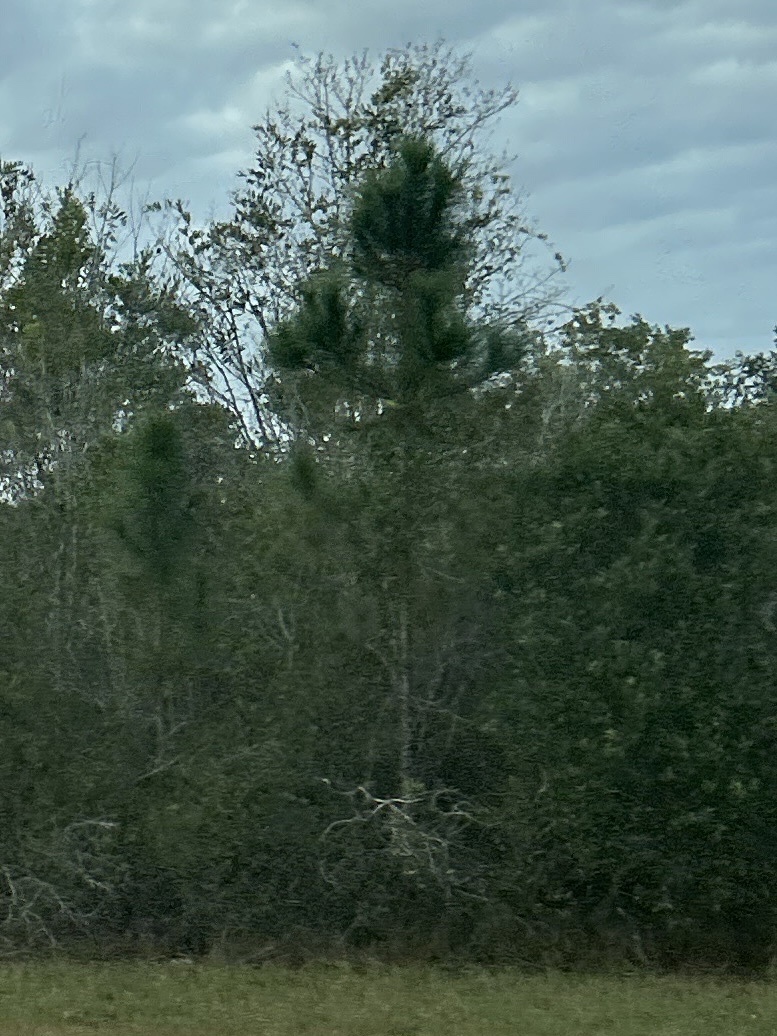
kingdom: Plantae
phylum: Tracheophyta
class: Pinopsida
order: Pinales
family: Pinaceae
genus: Pinus
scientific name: Pinus elliottii
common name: Slash pine
